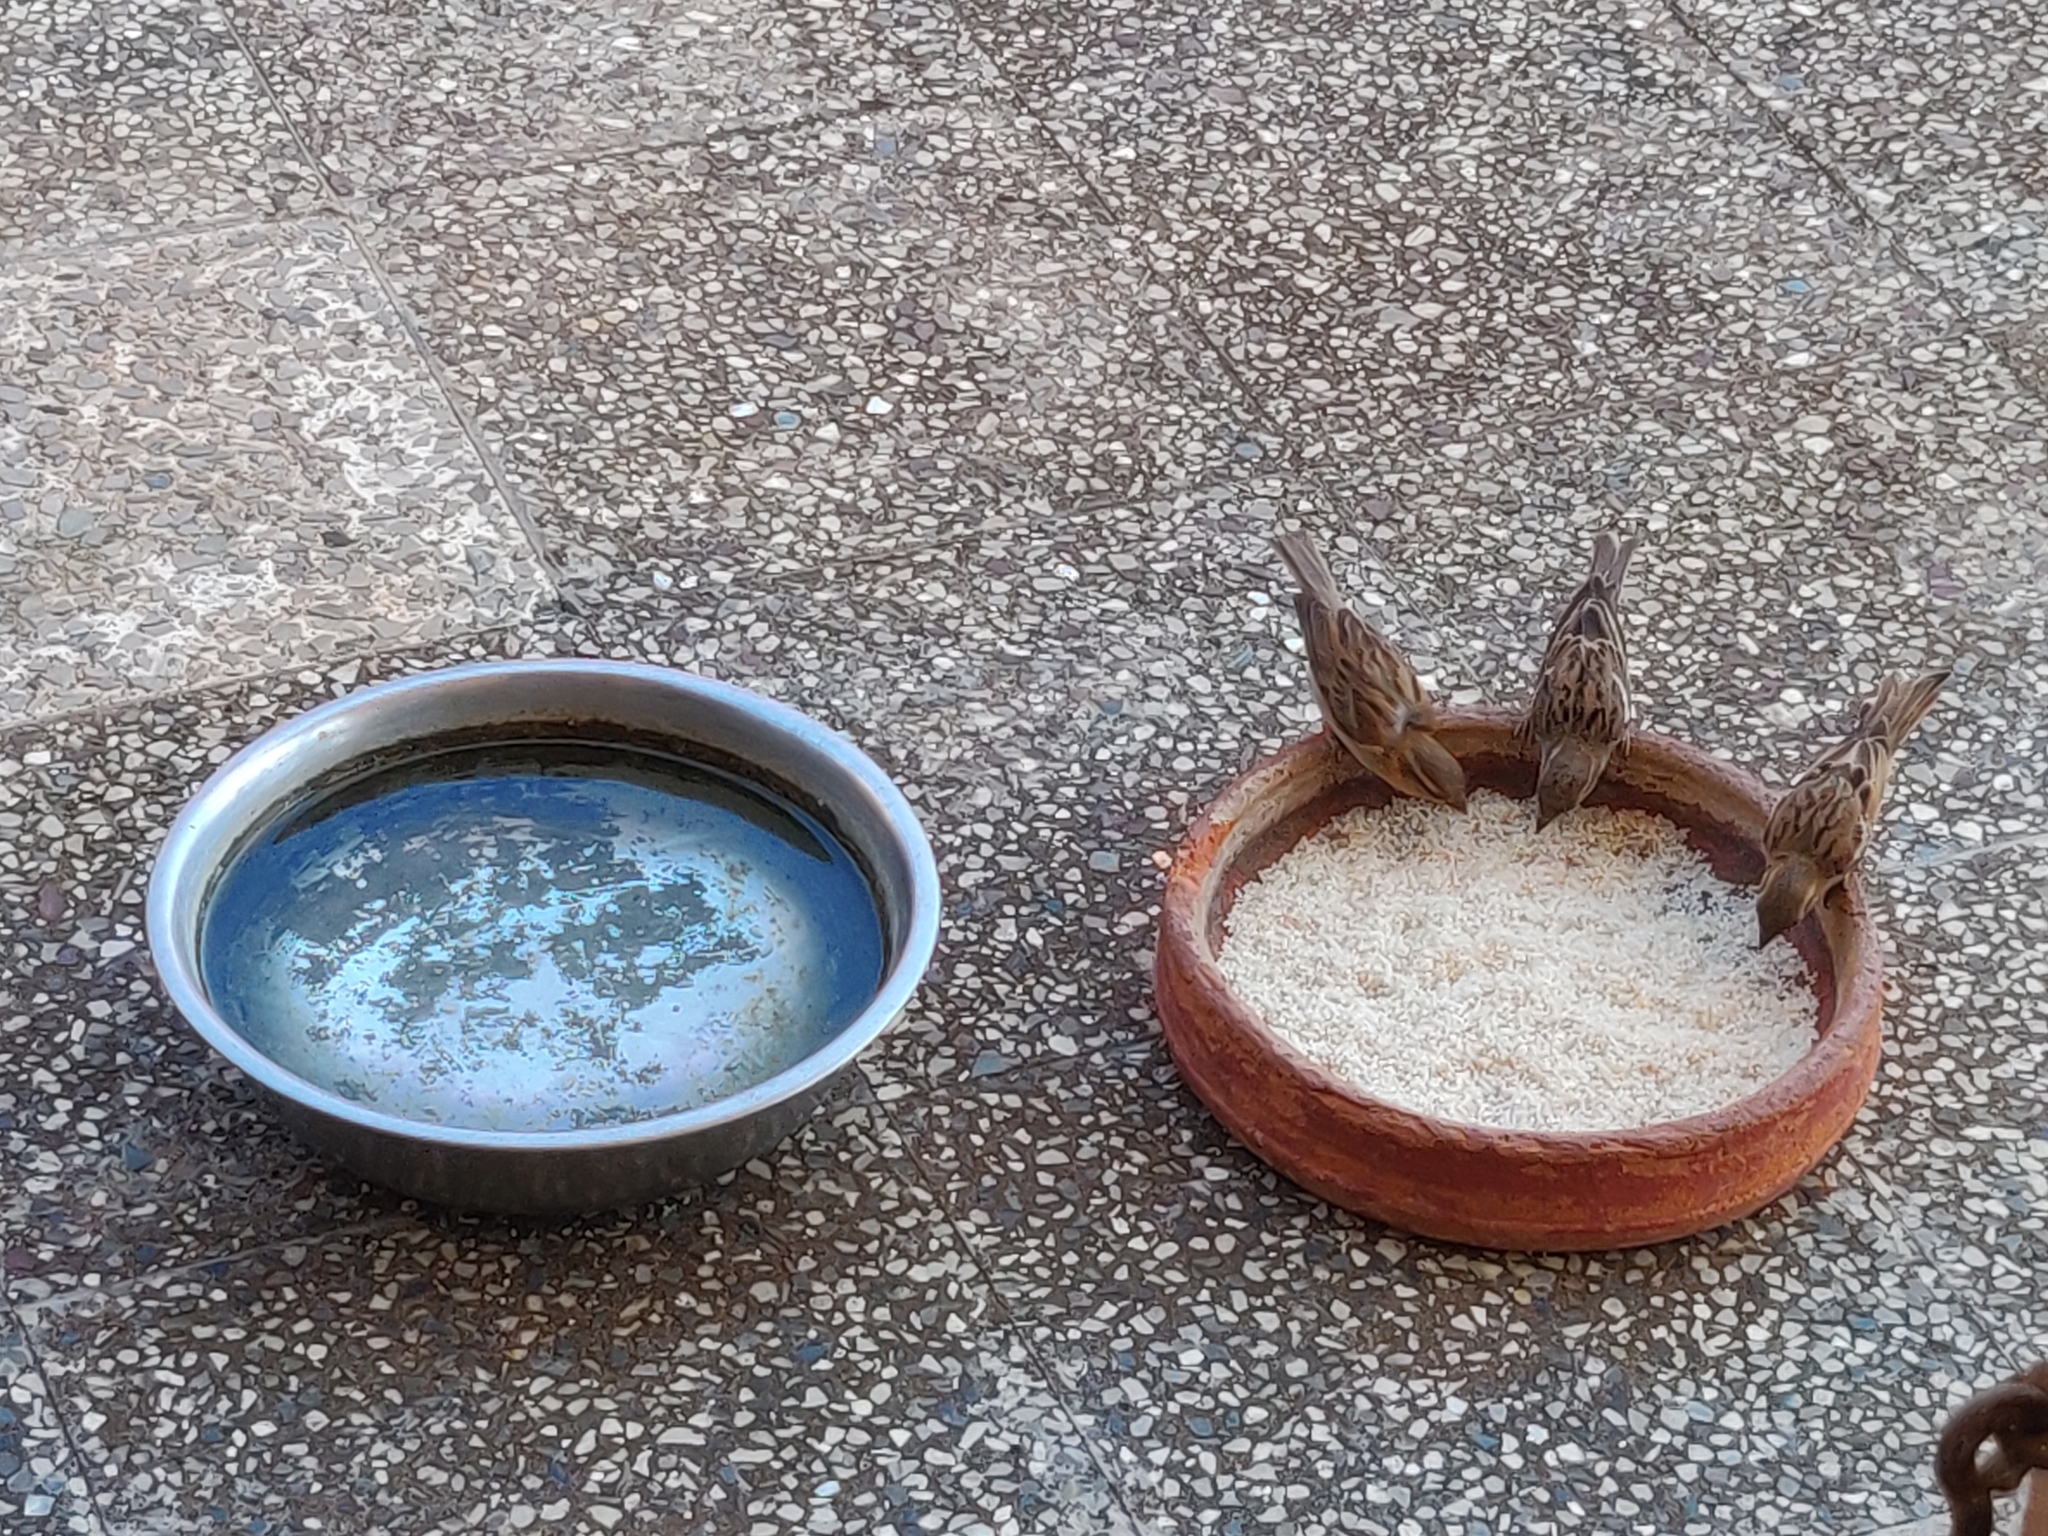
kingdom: Animalia
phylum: Chordata
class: Aves
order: Passeriformes
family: Passeridae
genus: Passer
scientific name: Passer domesticus
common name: House sparrow
